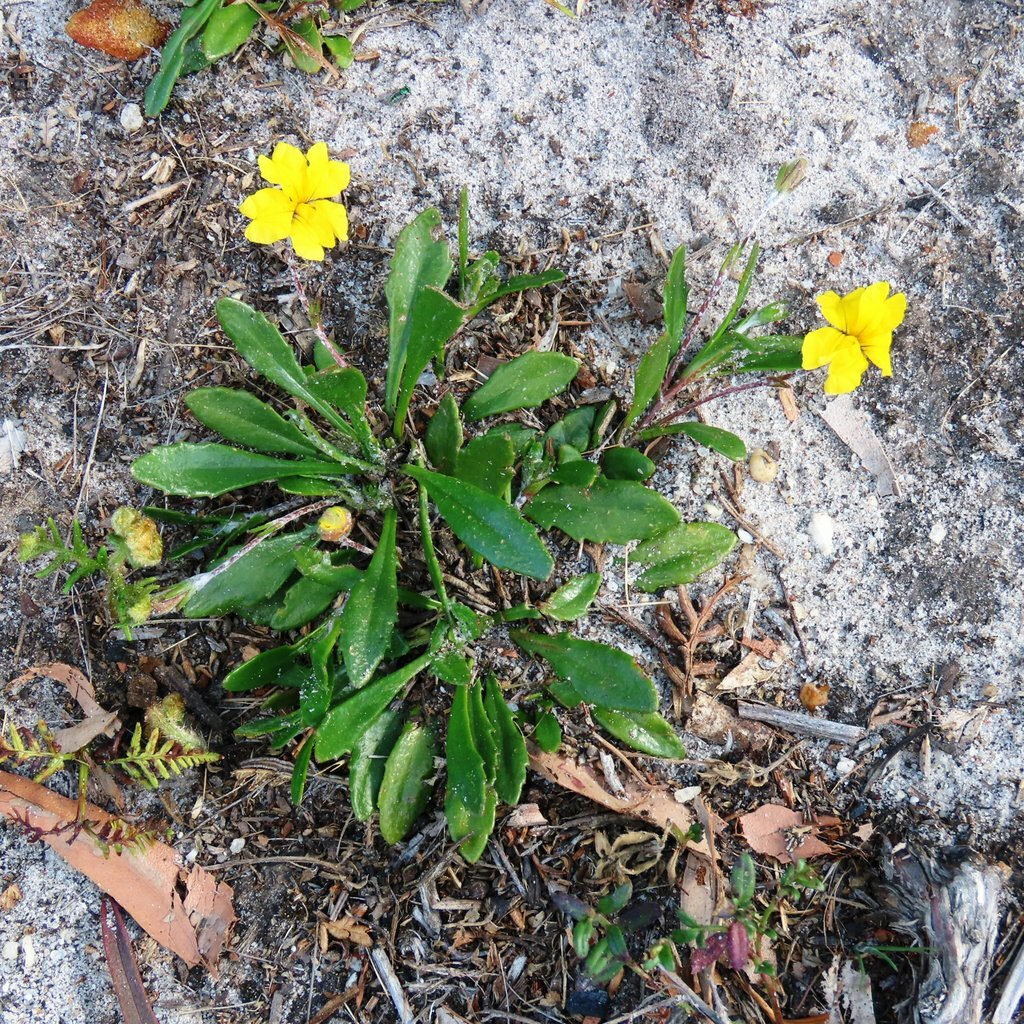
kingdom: Plantae
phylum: Tracheophyta
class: Magnoliopsida
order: Asterales
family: Goodeniaceae
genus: Goodenia
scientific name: Goodenia geniculata
